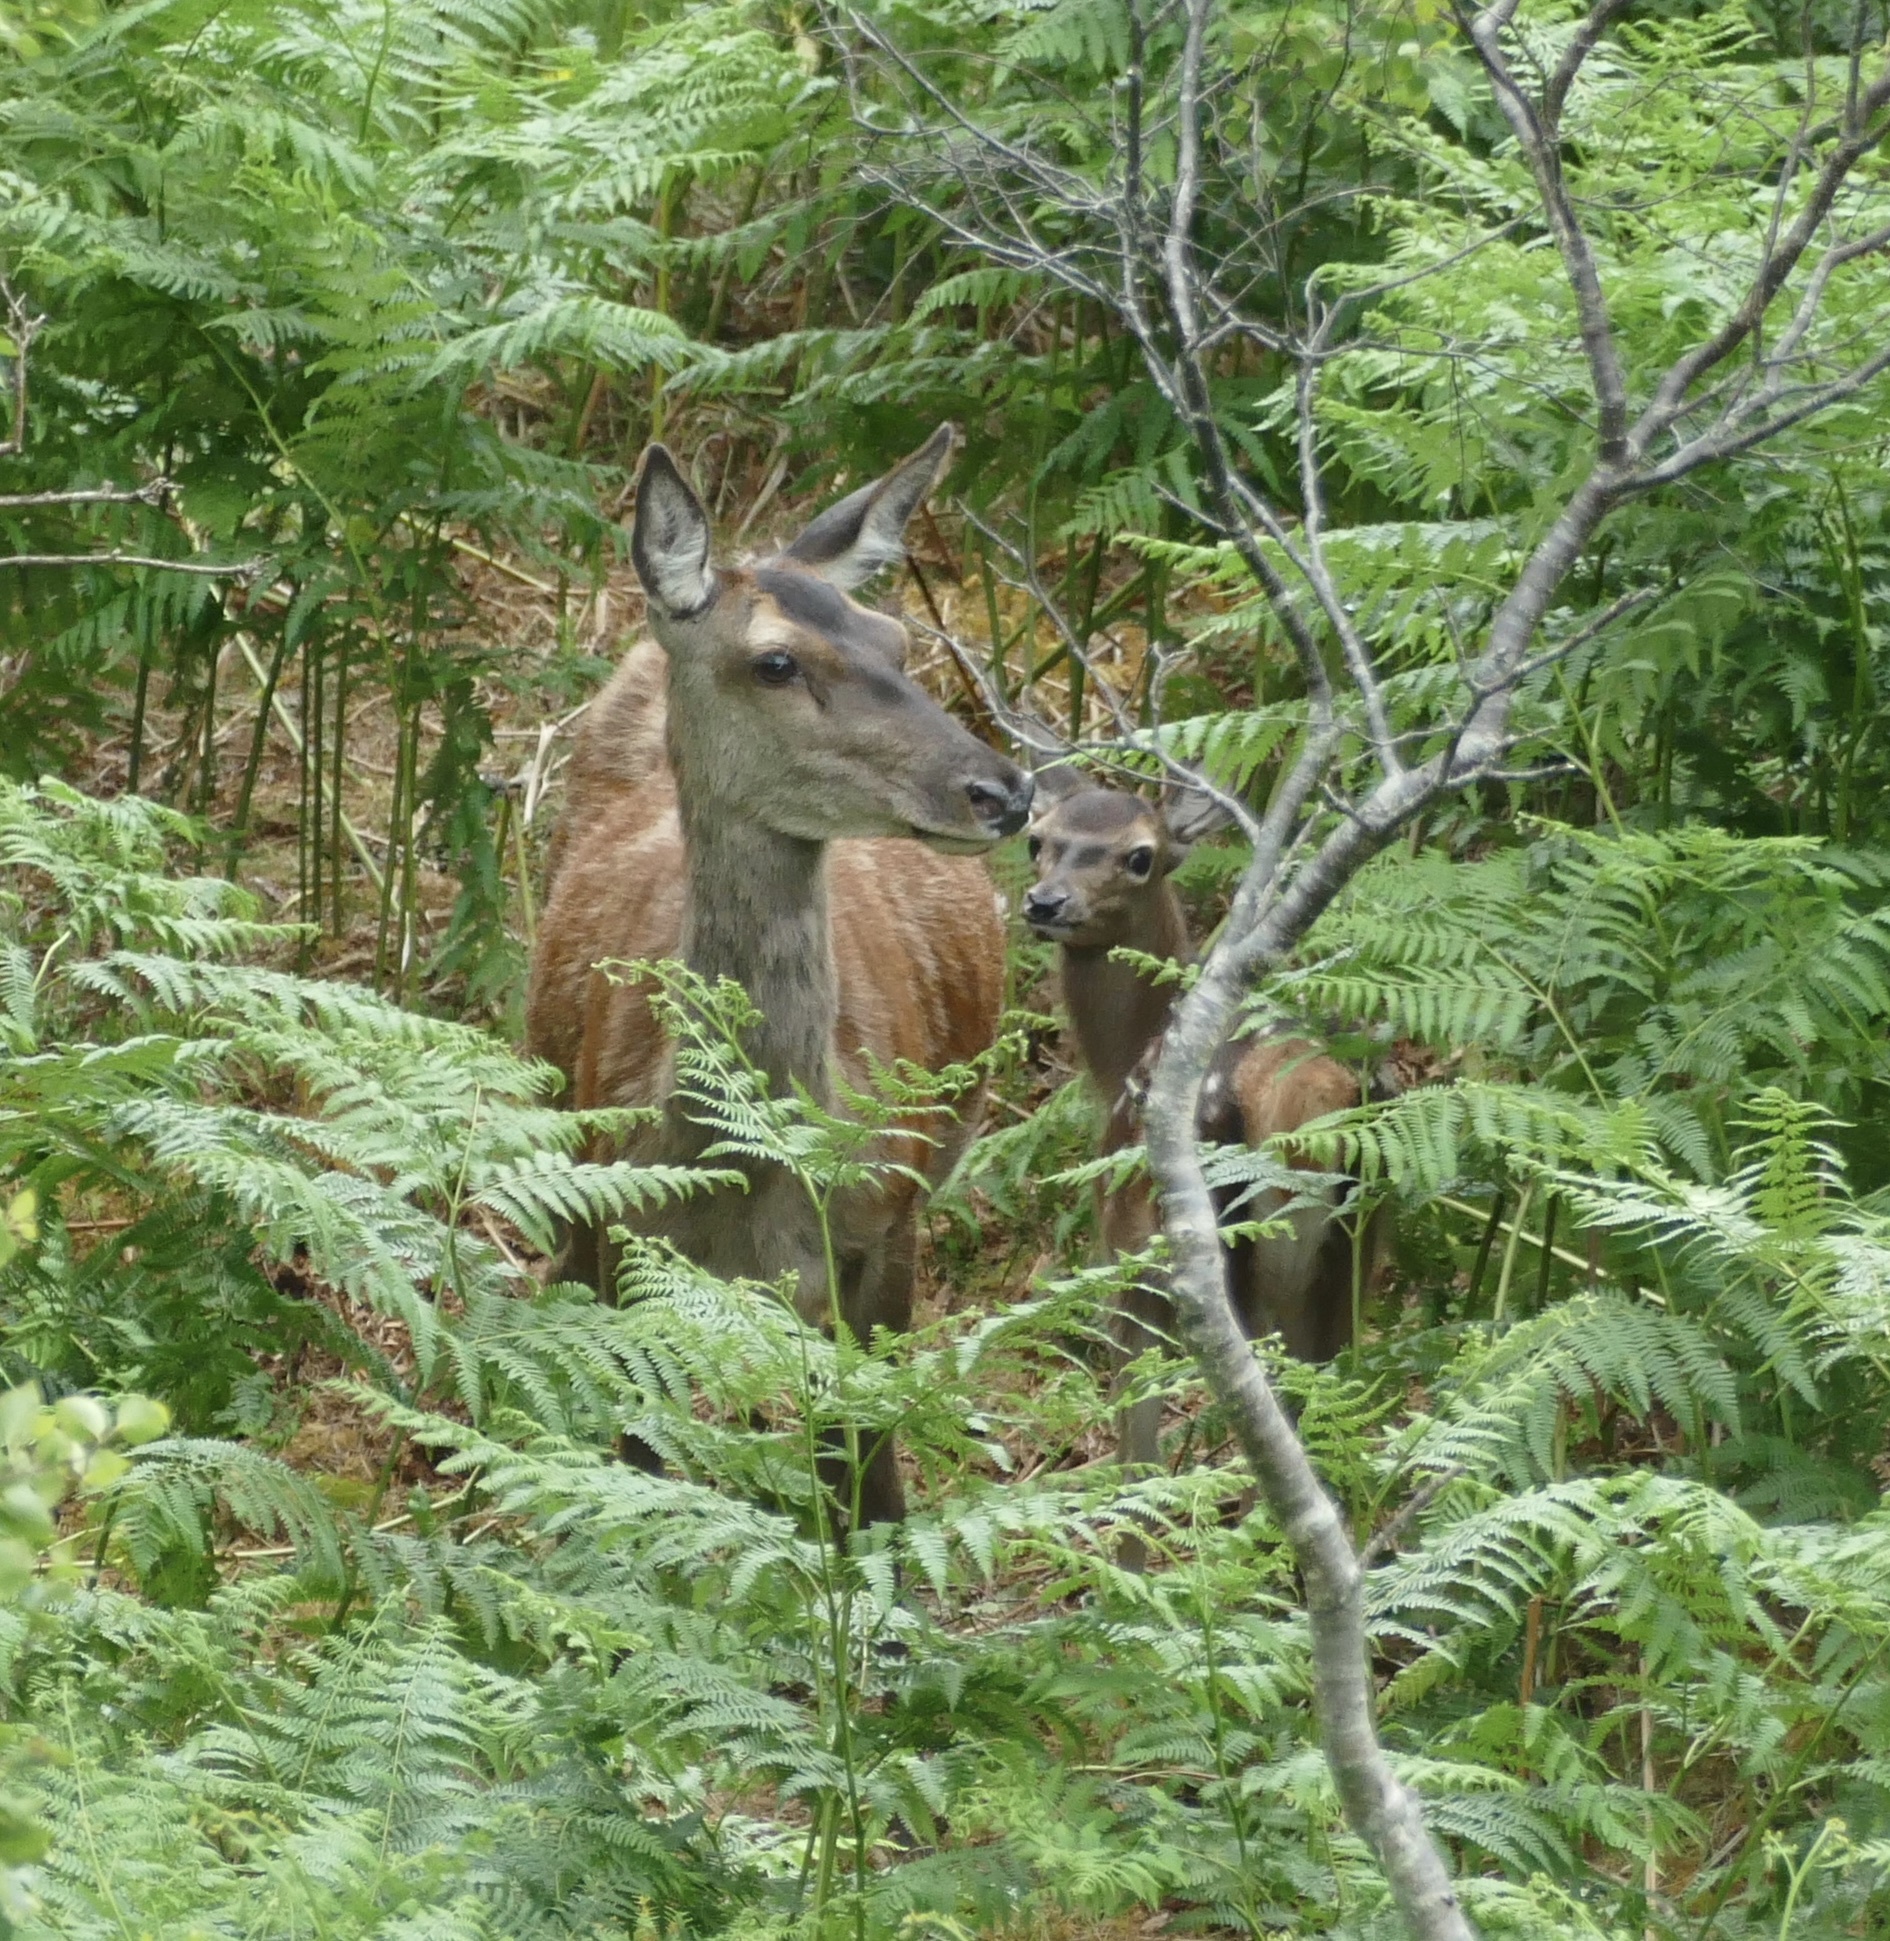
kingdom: Animalia
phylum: Chordata
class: Mammalia
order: Artiodactyla
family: Cervidae
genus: Cervus
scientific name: Cervus elaphus
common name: Red deer
